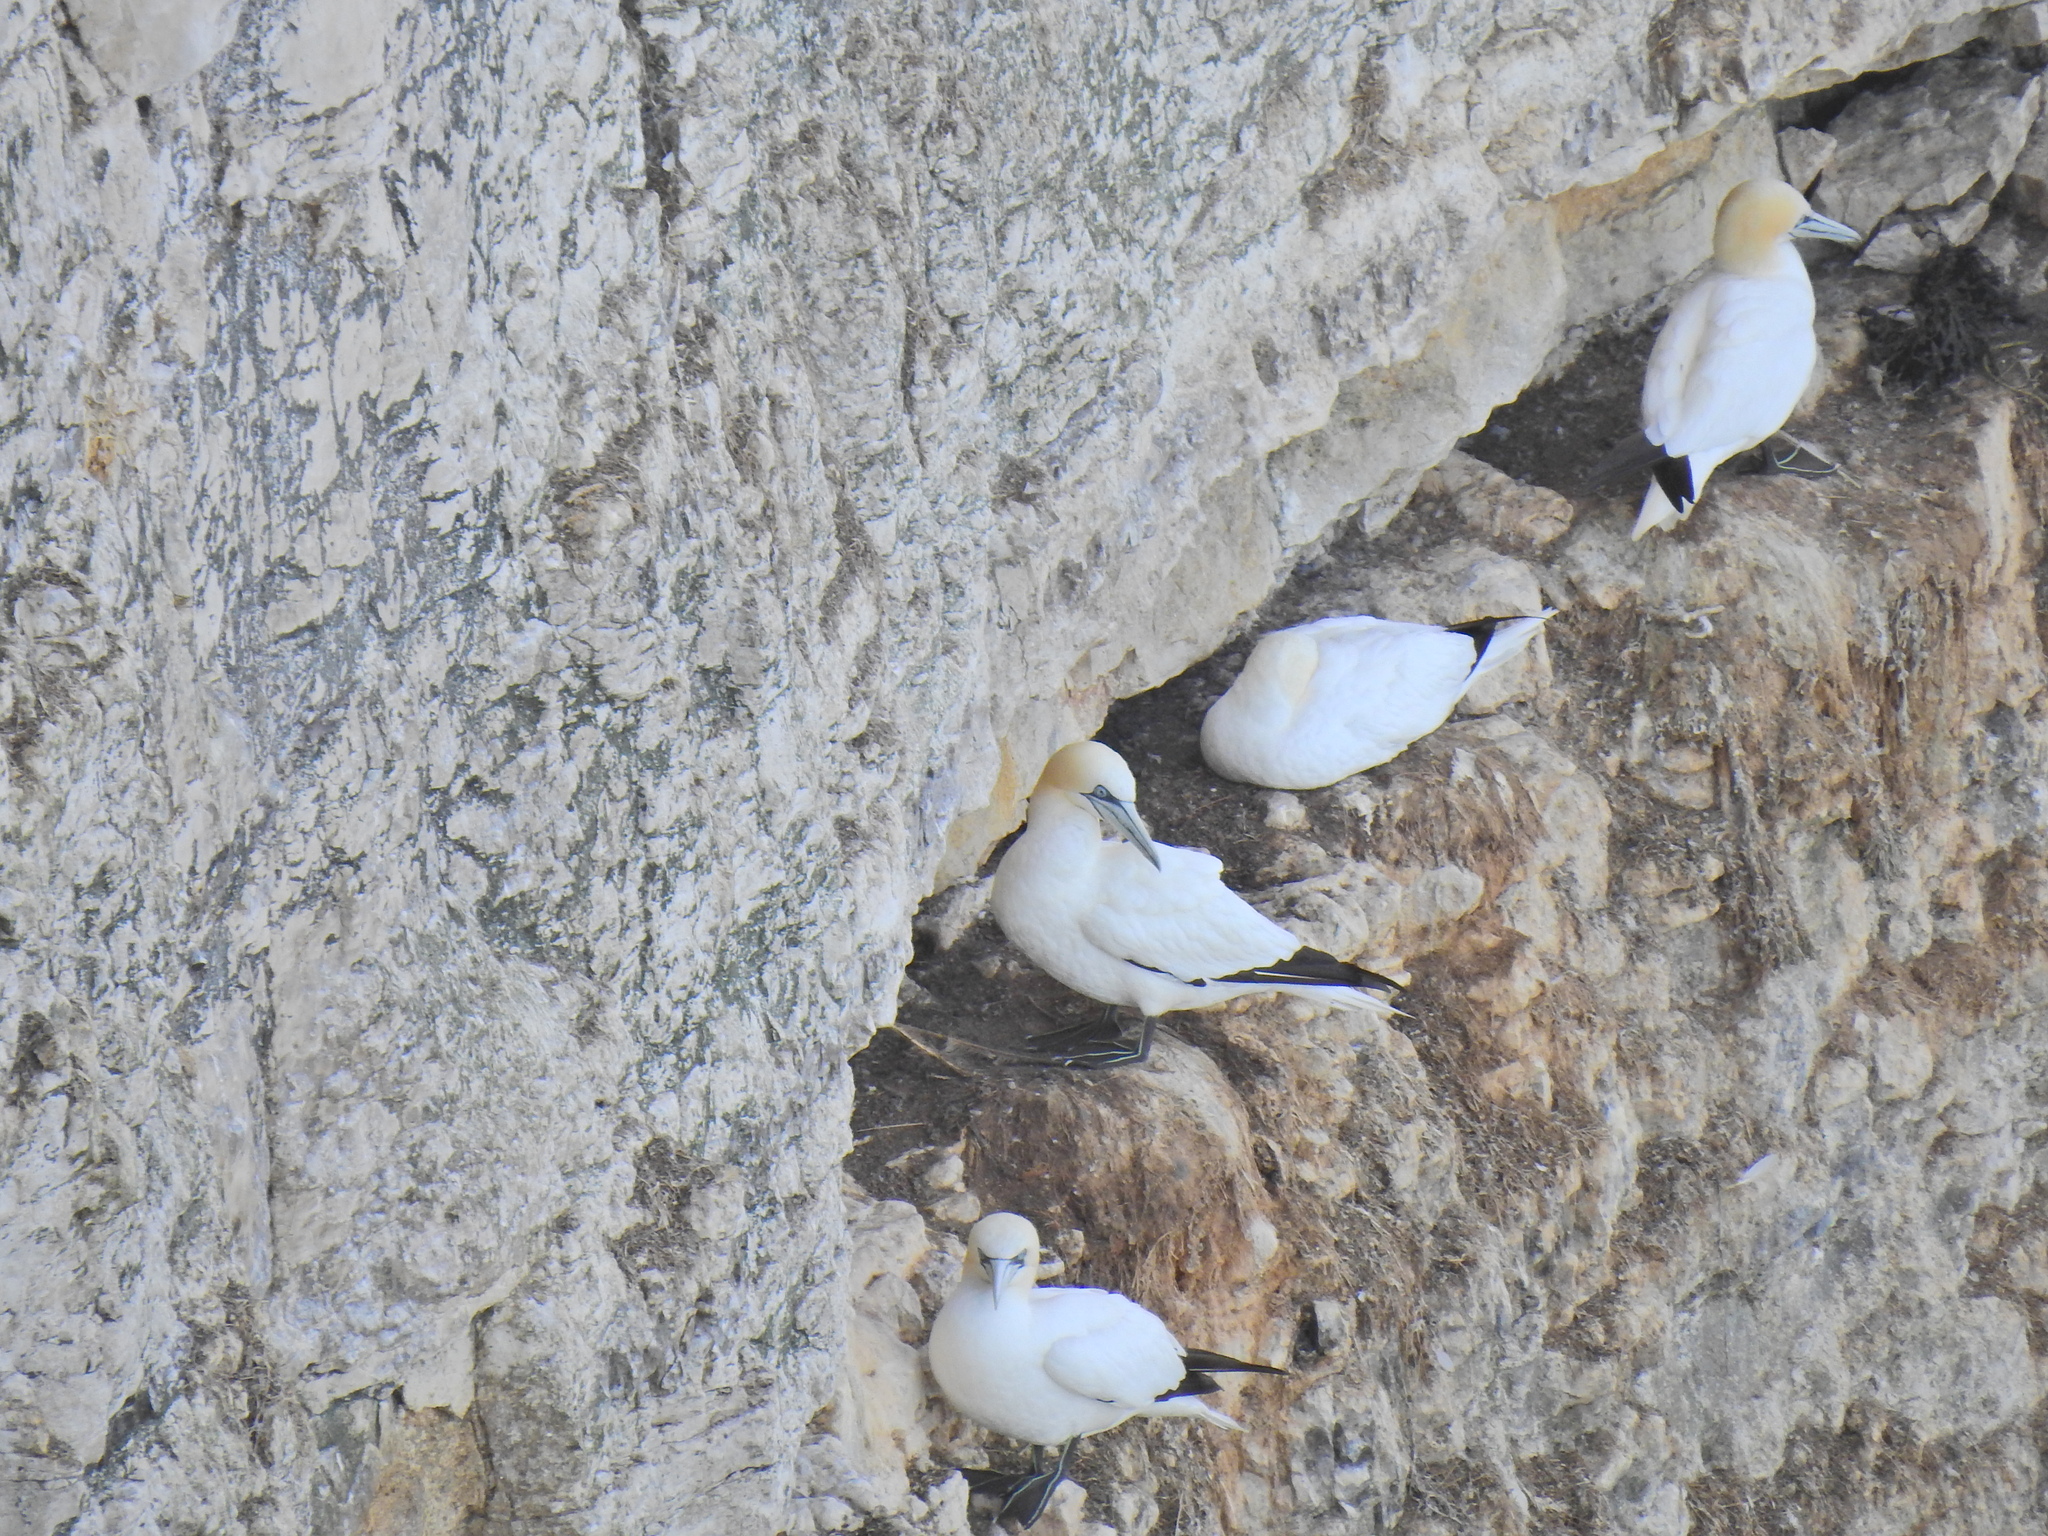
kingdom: Animalia
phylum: Chordata
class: Aves
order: Suliformes
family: Sulidae
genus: Morus
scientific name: Morus bassanus
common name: Northern gannet
